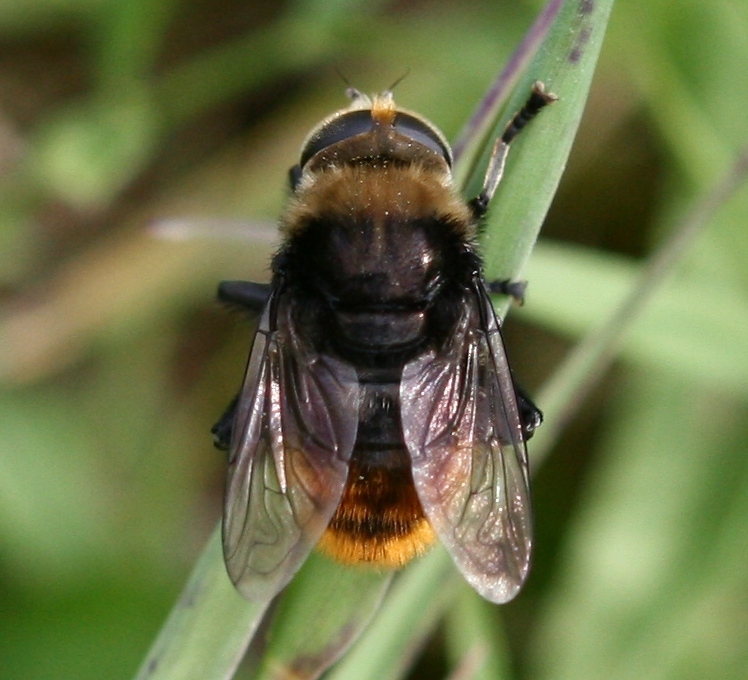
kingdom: Animalia
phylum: Arthropoda
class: Insecta
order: Diptera
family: Syrphidae
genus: Merodon
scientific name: Merodon equestris
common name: Greater bulb-fly
